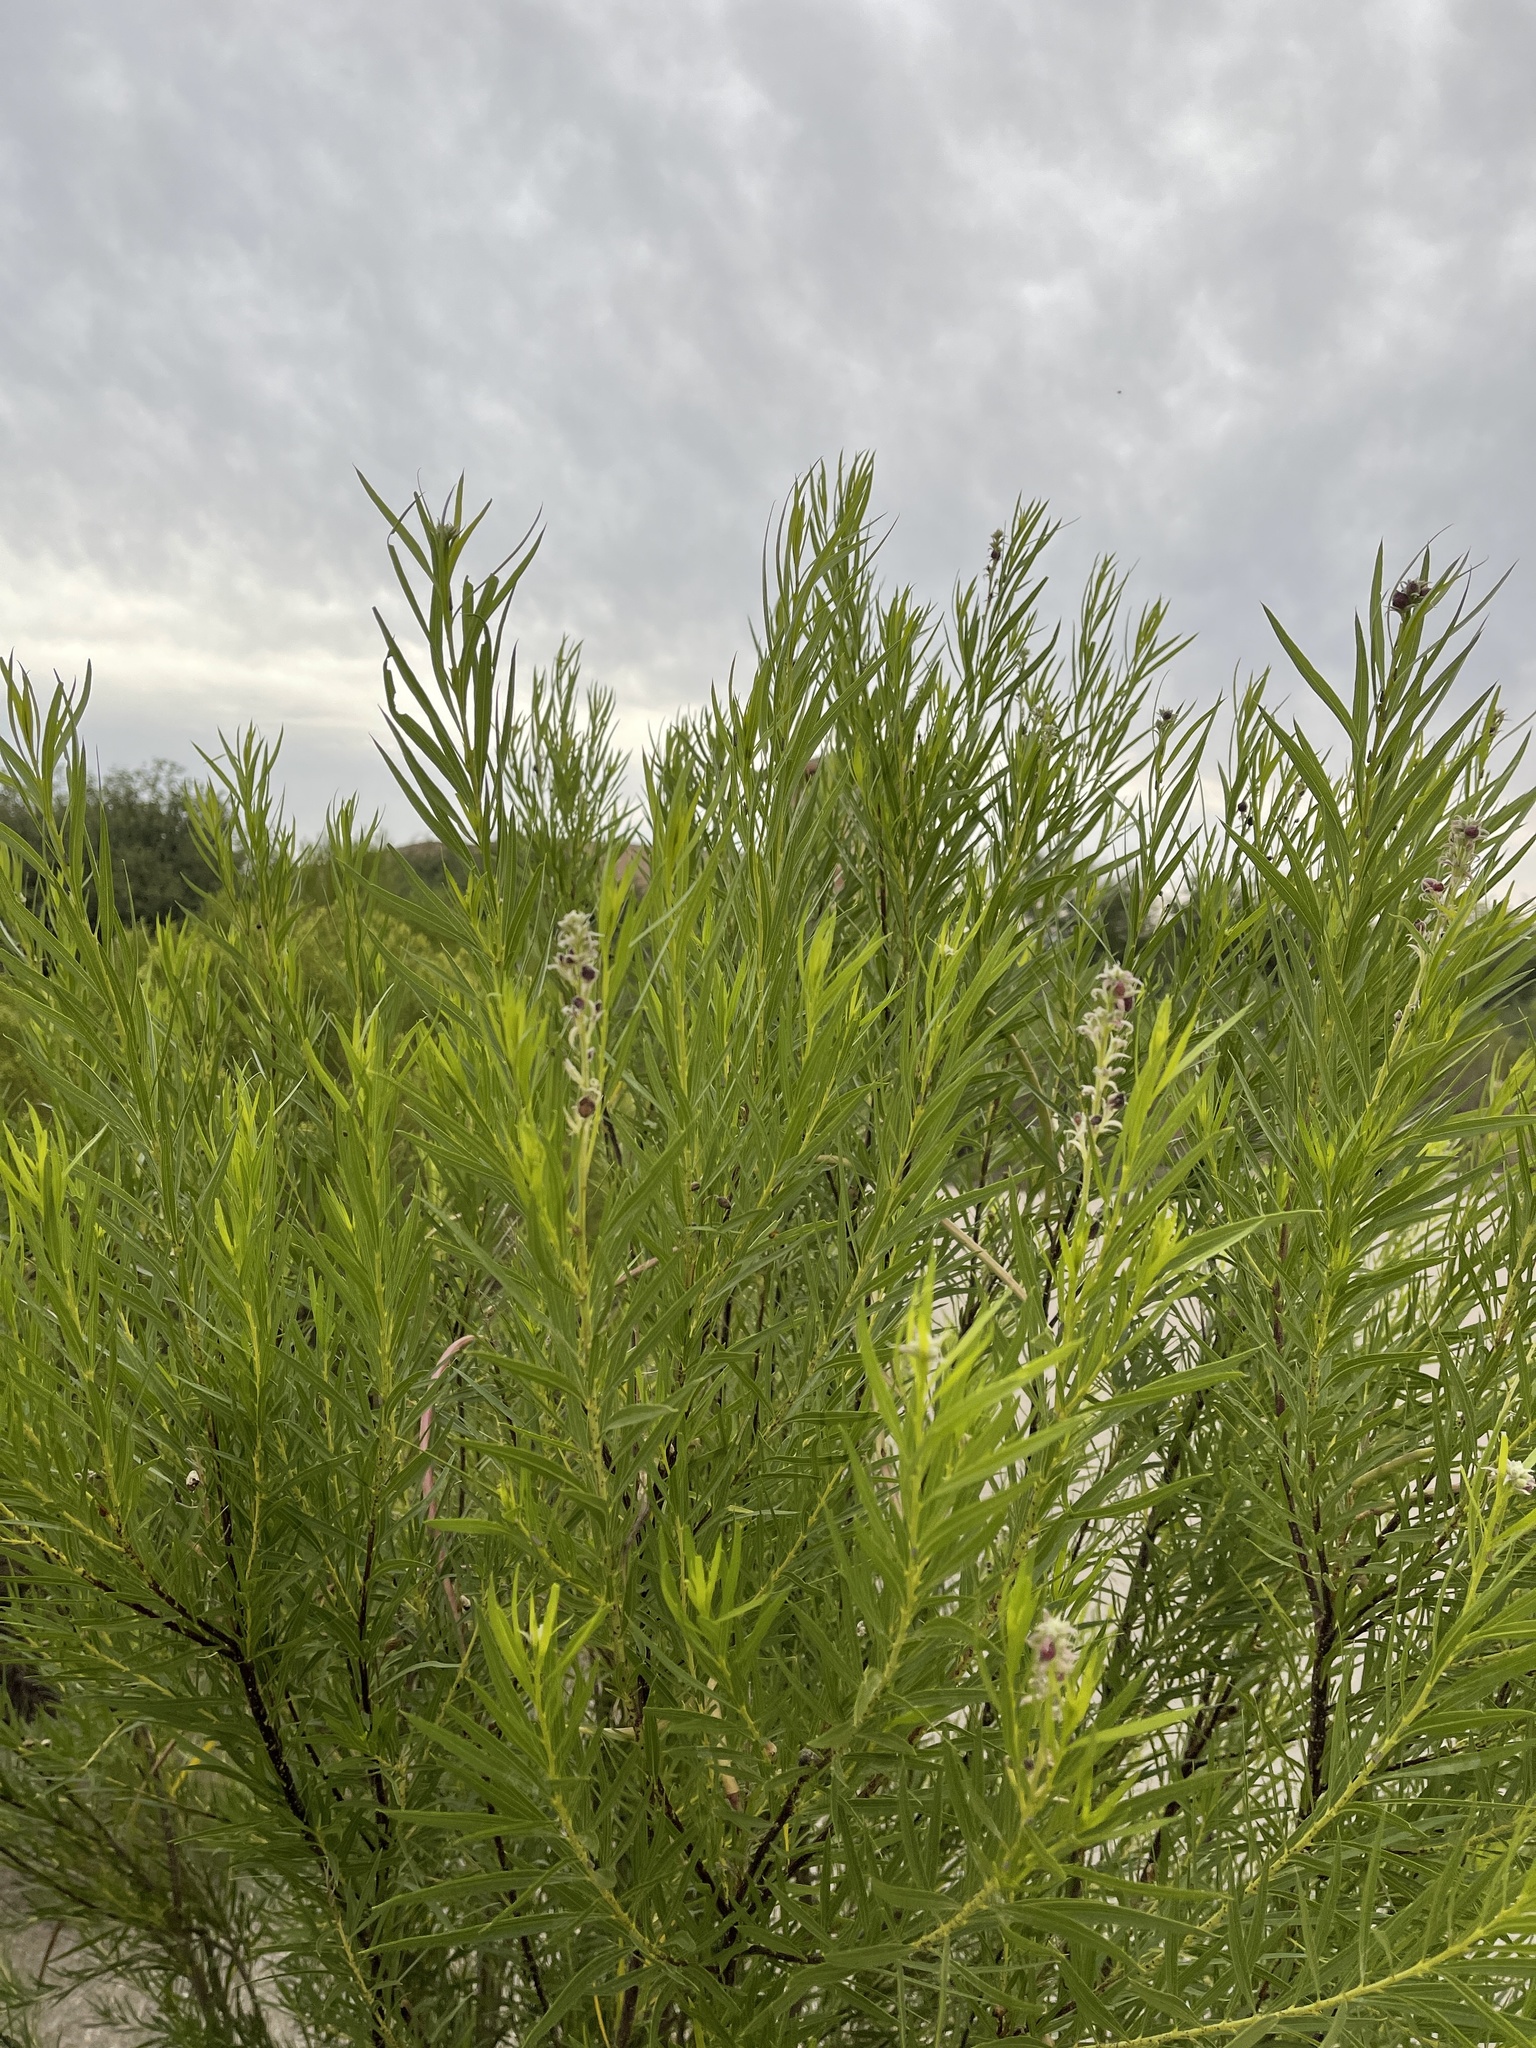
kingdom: Plantae
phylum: Tracheophyta
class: Magnoliopsida
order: Lamiales
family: Bignoniaceae
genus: Chilopsis
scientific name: Chilopsis linearis
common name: Desert-willow
